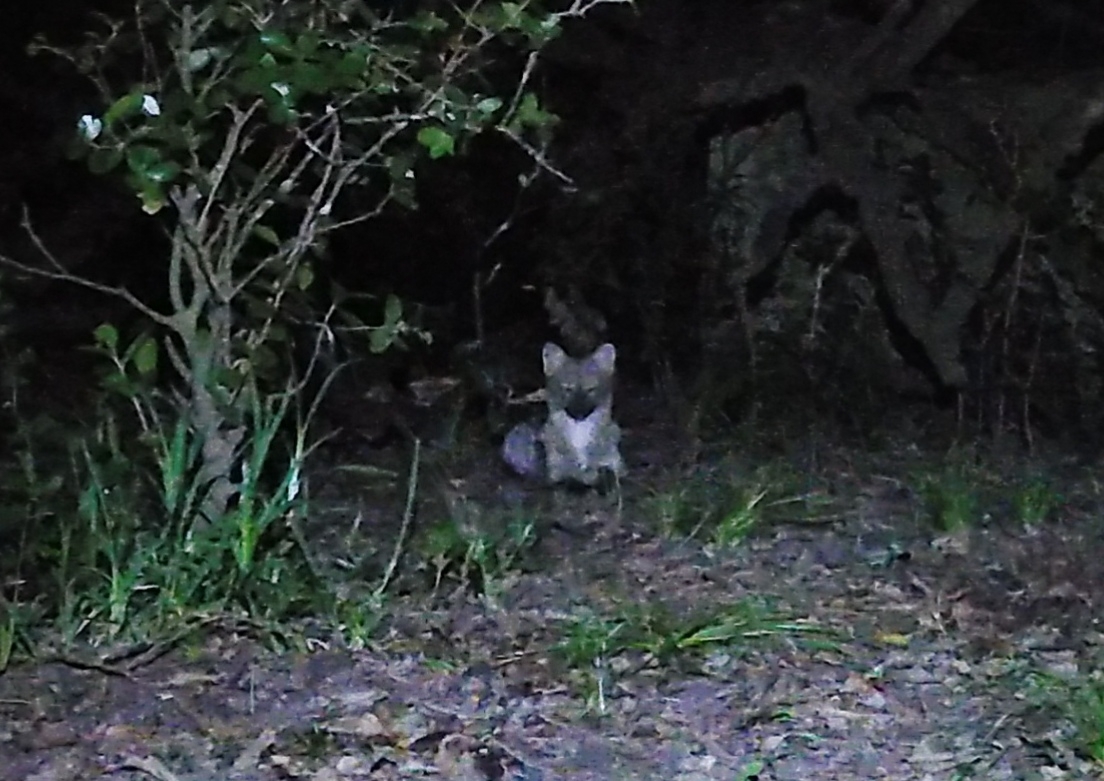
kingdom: Animalia
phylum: Chordata
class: Mammalia
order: Carnivora
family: Canidae
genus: Cerdocyon
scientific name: Cerdocyon thous
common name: Crab-eating fox
